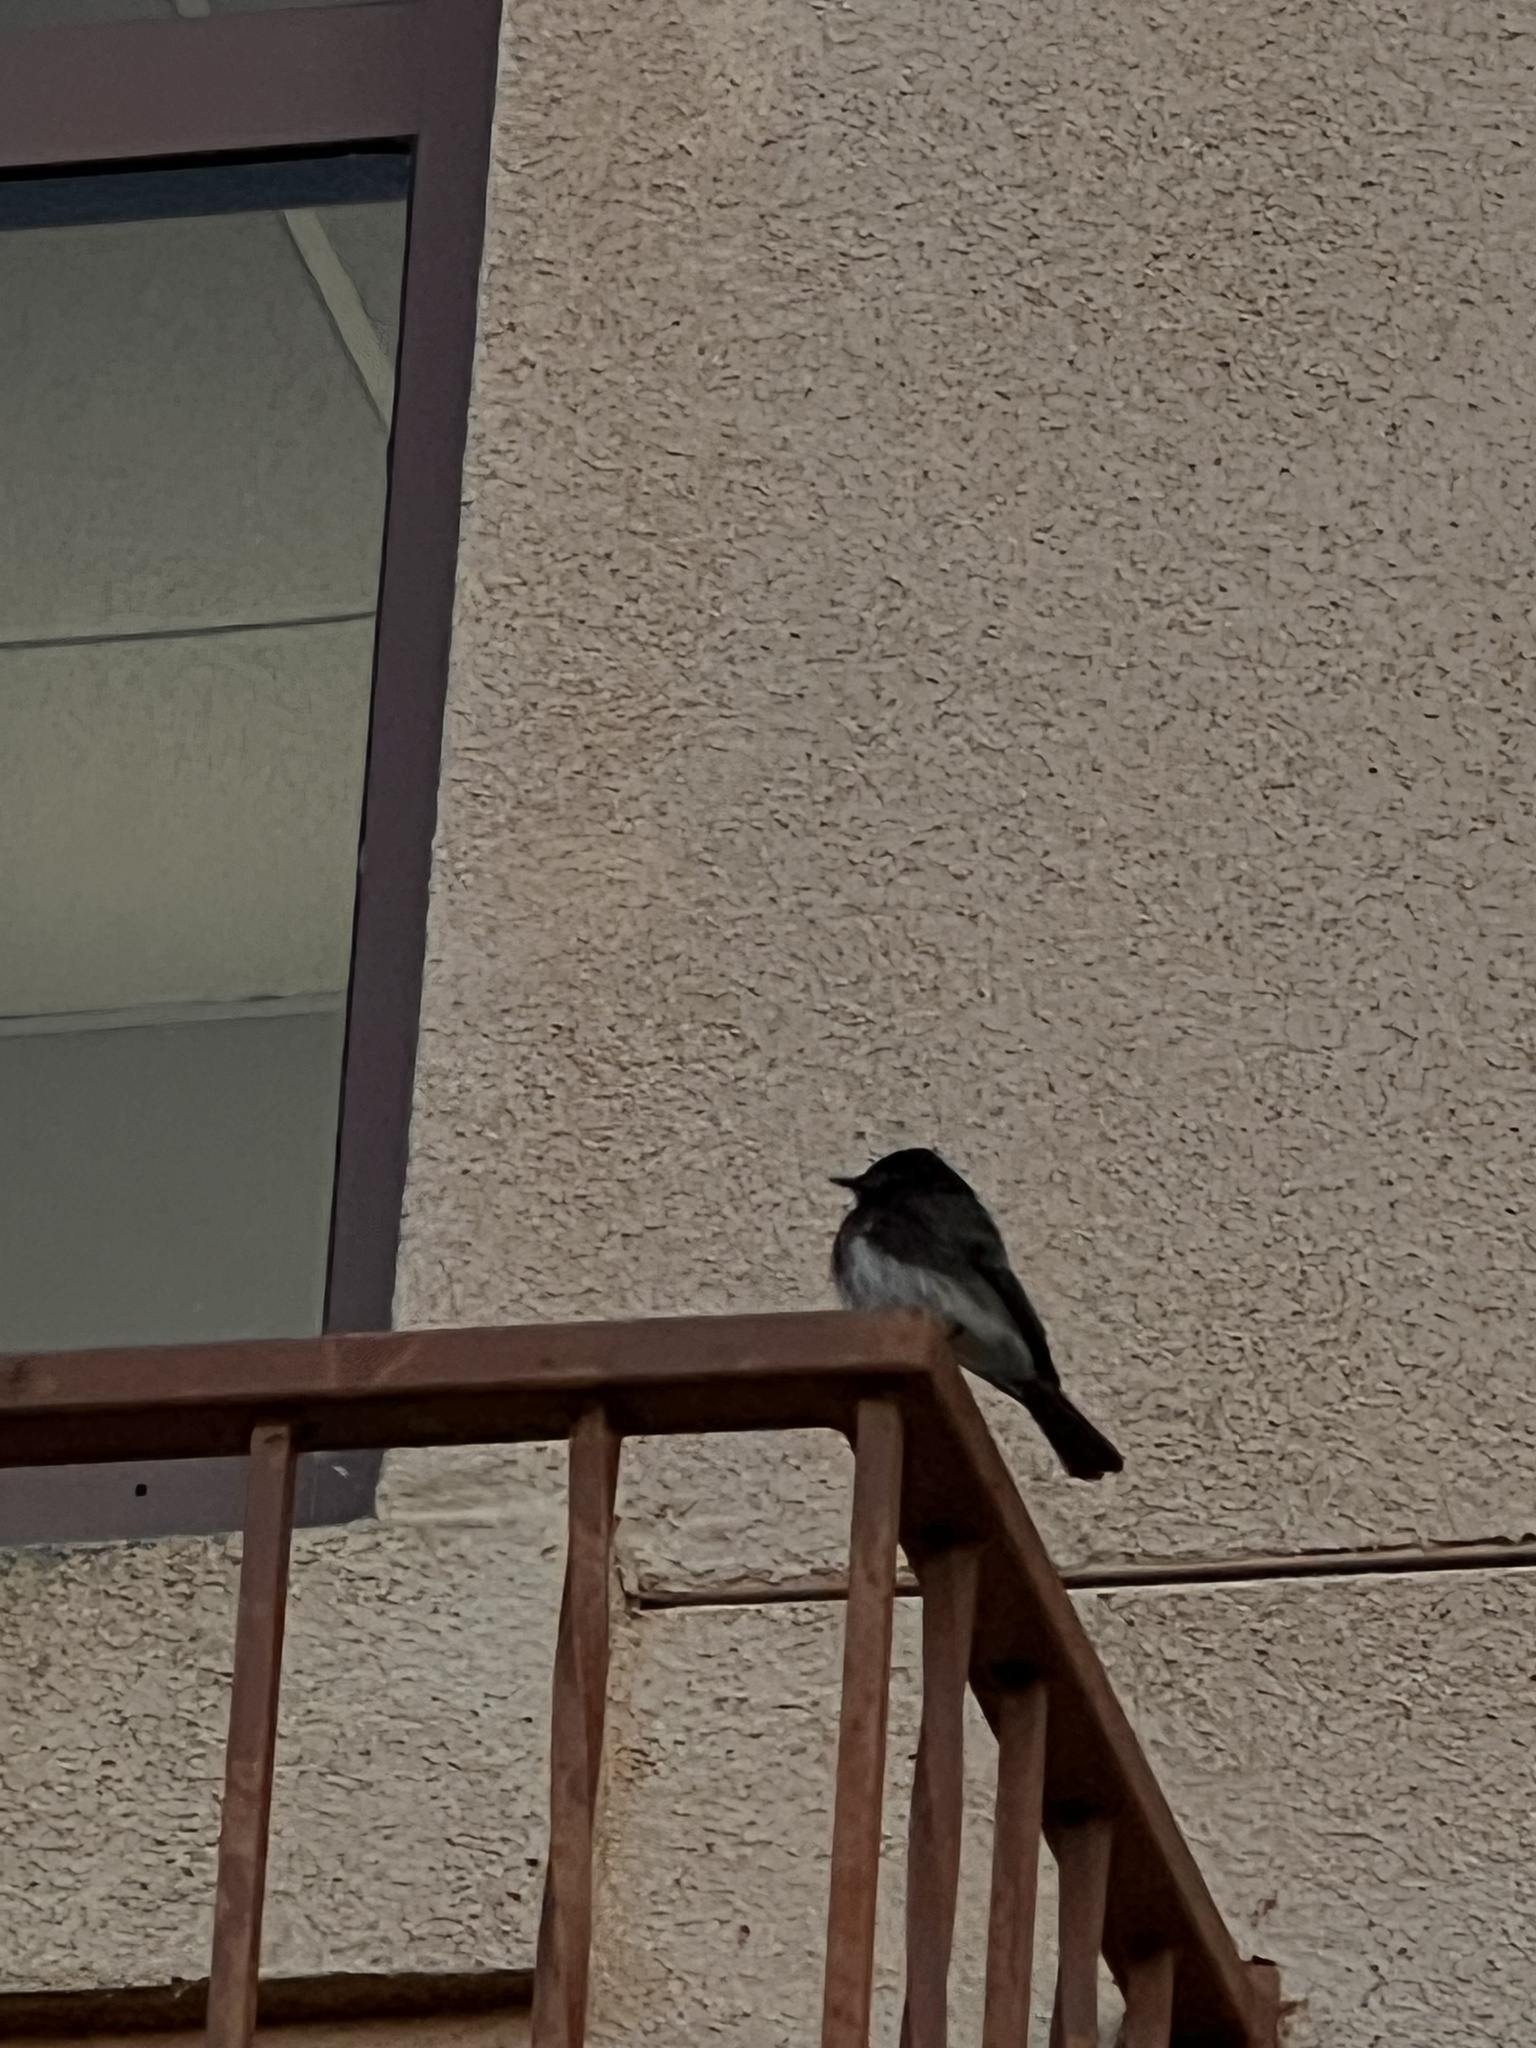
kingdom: Animalia
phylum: Chordata
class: Aves
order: Passeriformes
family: Tyrannidae
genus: Sayornis
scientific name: Sayornis nigricans
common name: Black phoebe
